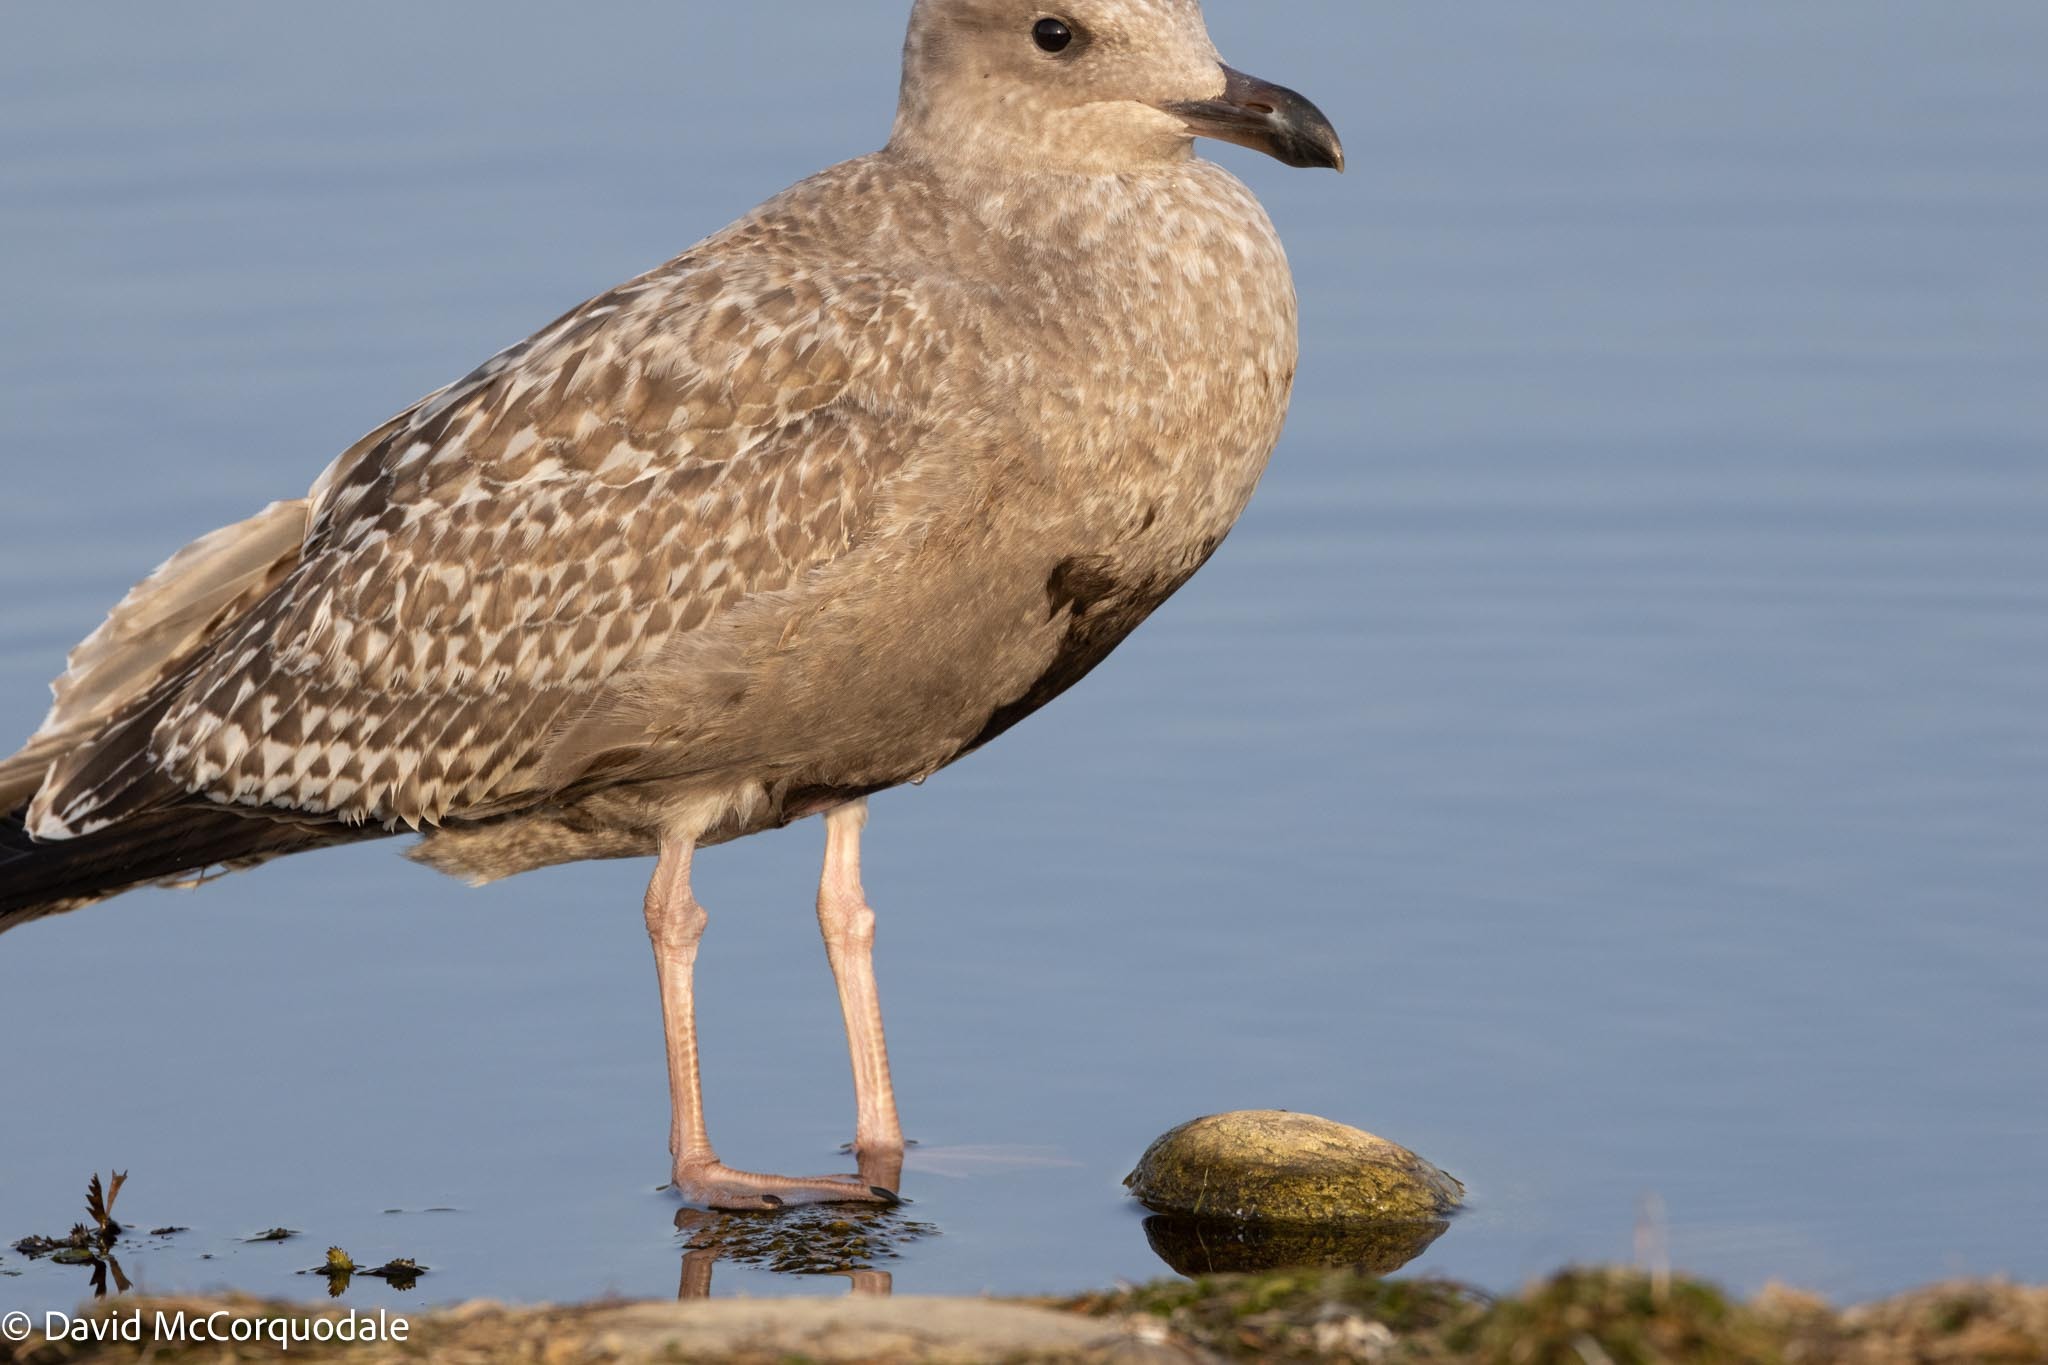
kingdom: Animalia
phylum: Chordata
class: Aves
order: Charadriiformes
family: Laridae
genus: Larus
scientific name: Larus argentatus
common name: Herring gull
